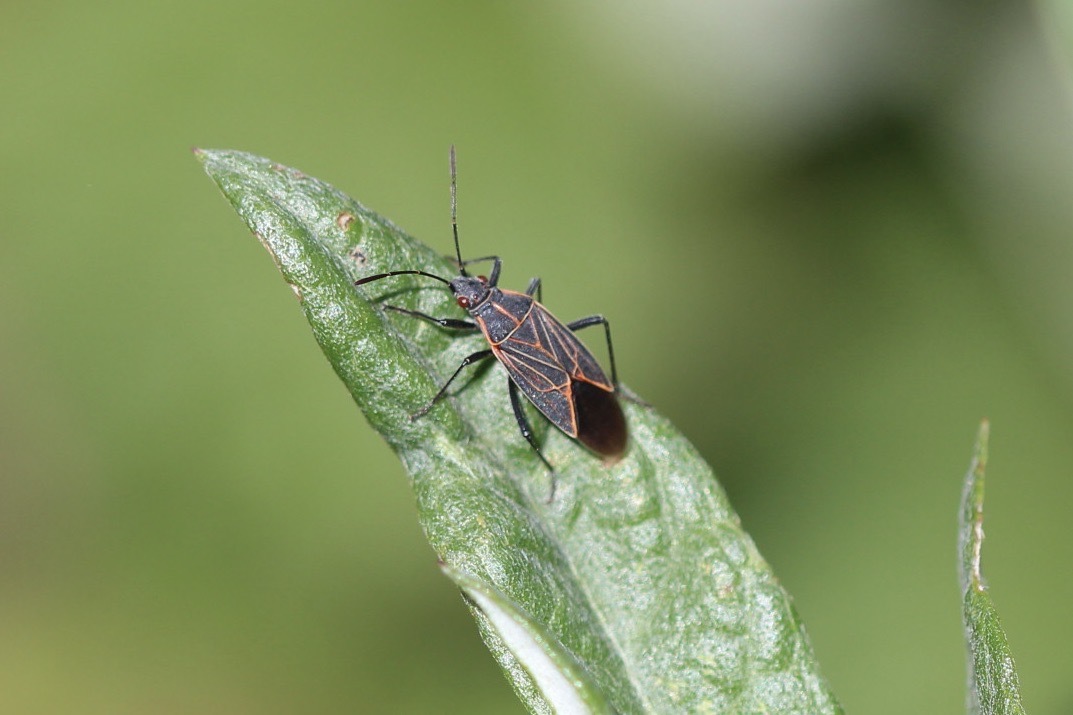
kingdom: Animalia
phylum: Arthropoda
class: Insecta
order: Hemiptera
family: Rhopalidae
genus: Boisea
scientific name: Boisea rubrolineata
